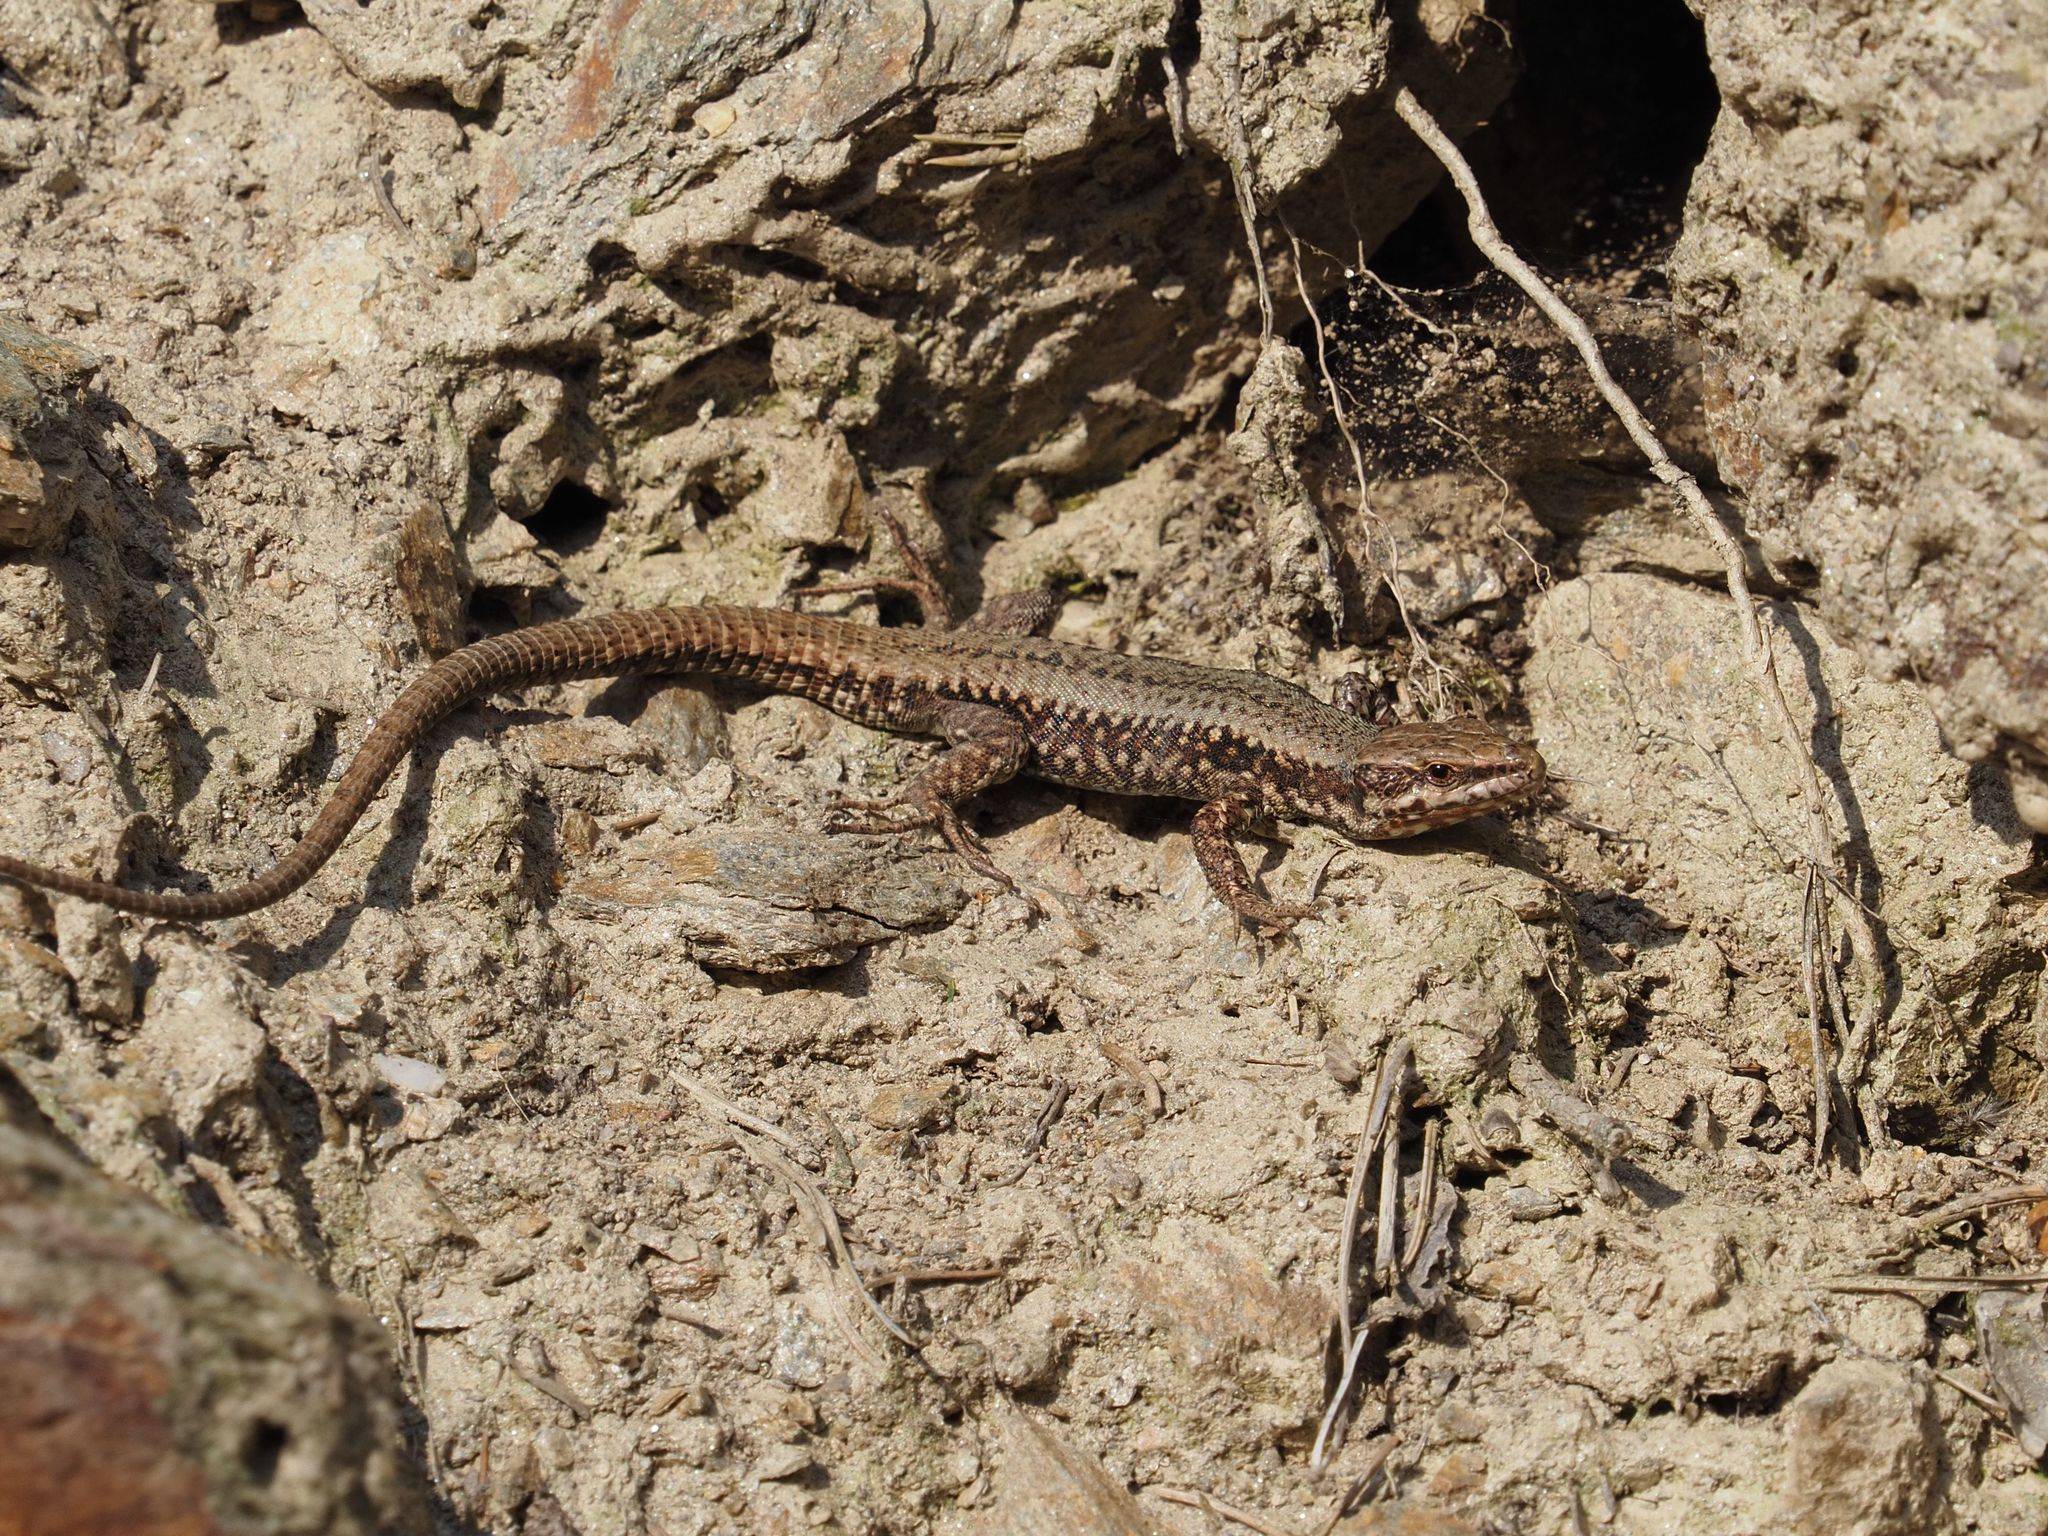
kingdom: Animalia
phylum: Chordata
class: Squamata
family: Lacertidae
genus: Podarcis
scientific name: Podarcis muralis
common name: Common wall lizard
